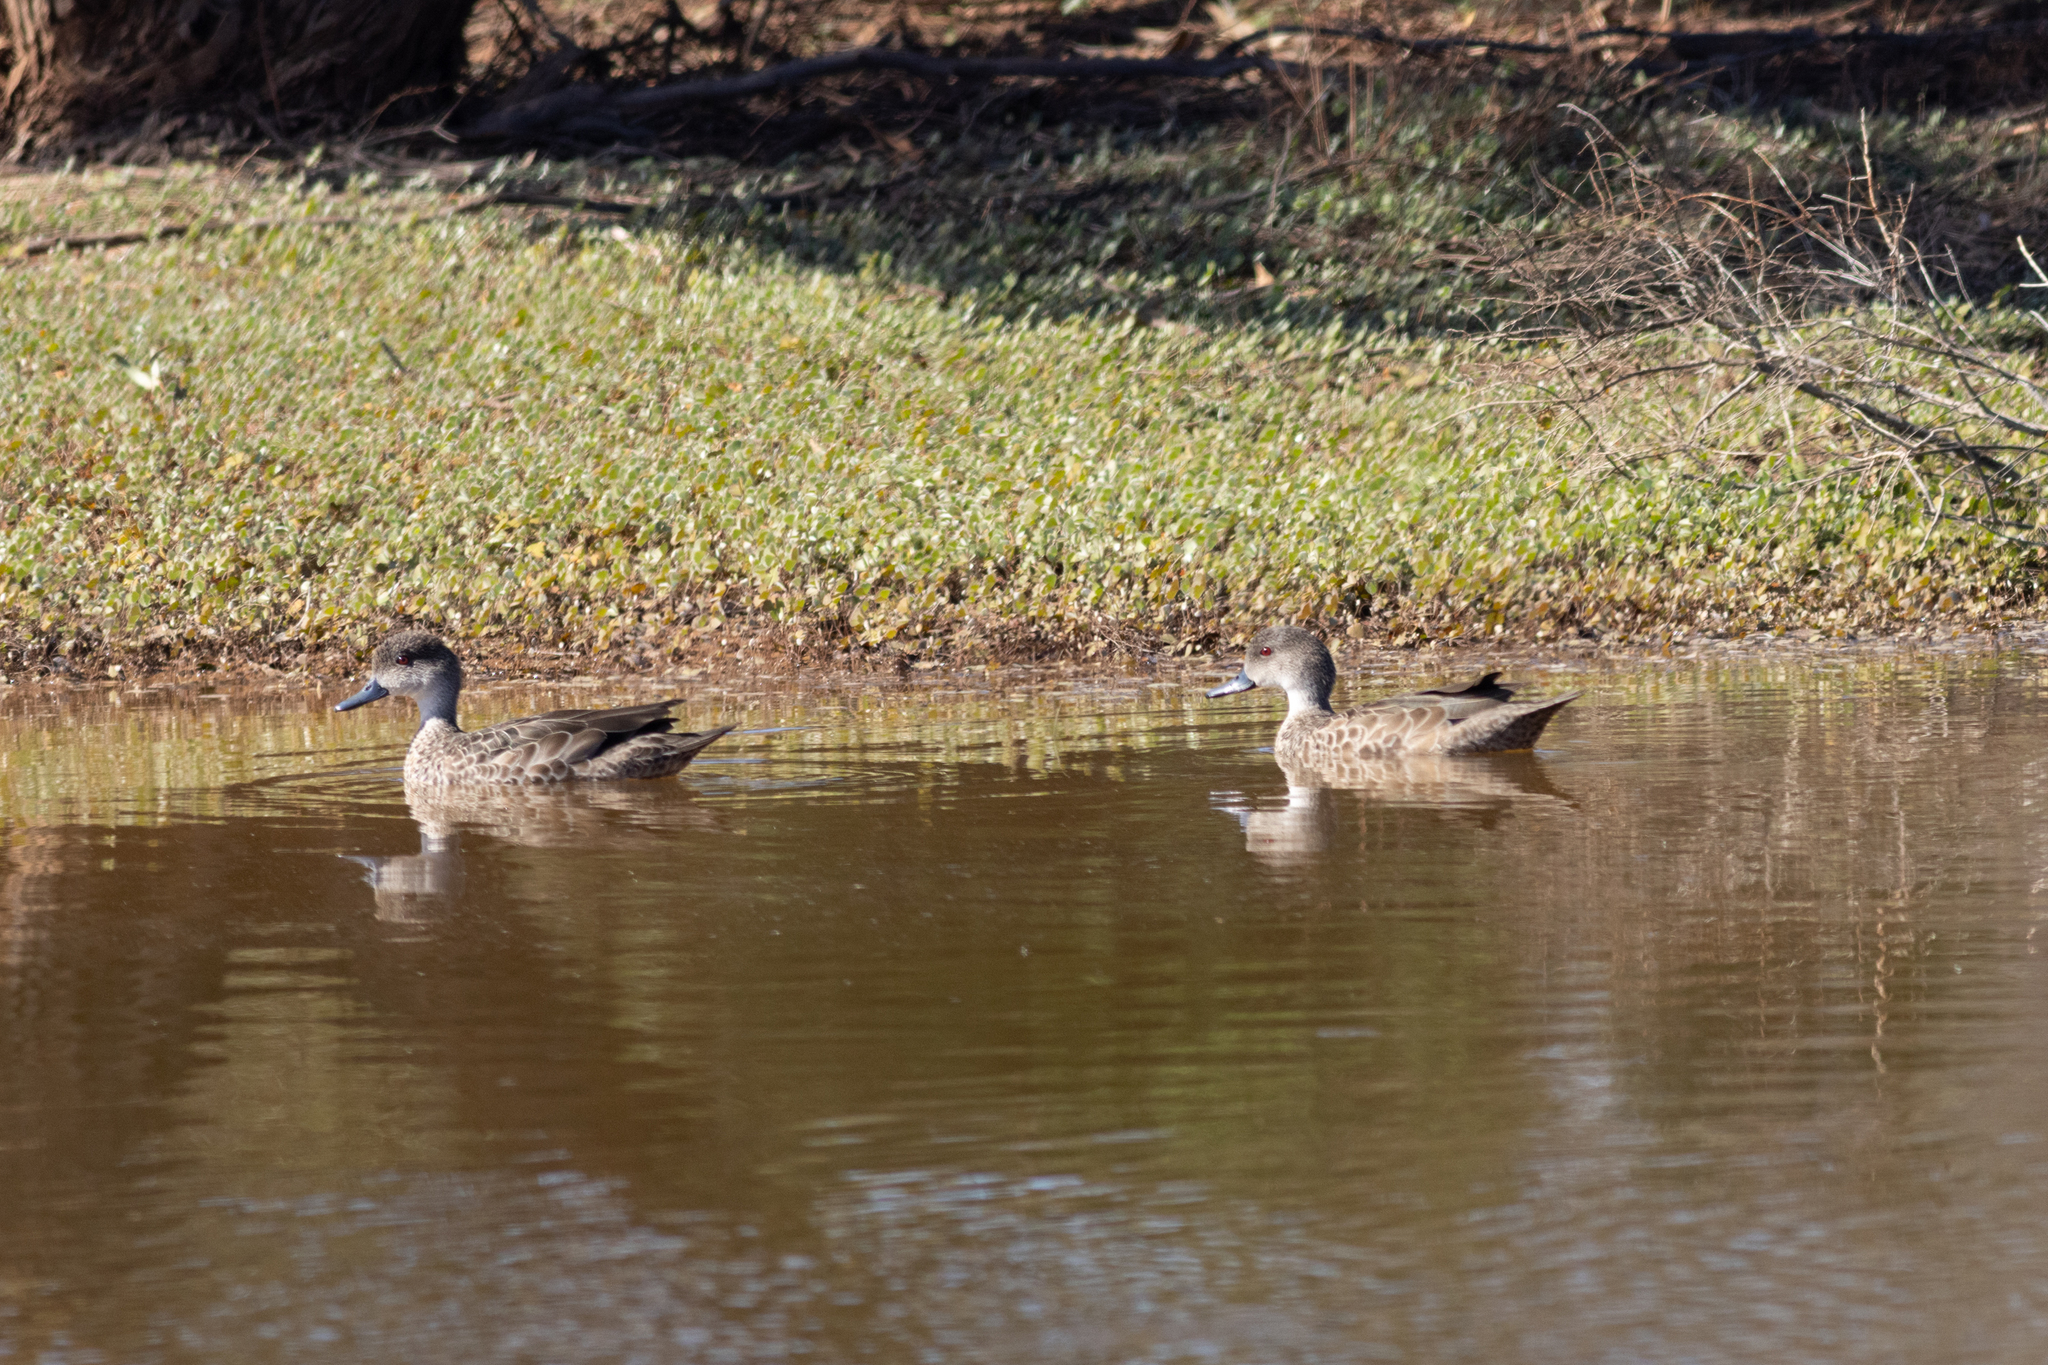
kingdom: Animalia
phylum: Chordata
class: Aves
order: Anseriformes
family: Anatidae
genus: Anas
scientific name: Anas gracilis
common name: Grey teal
